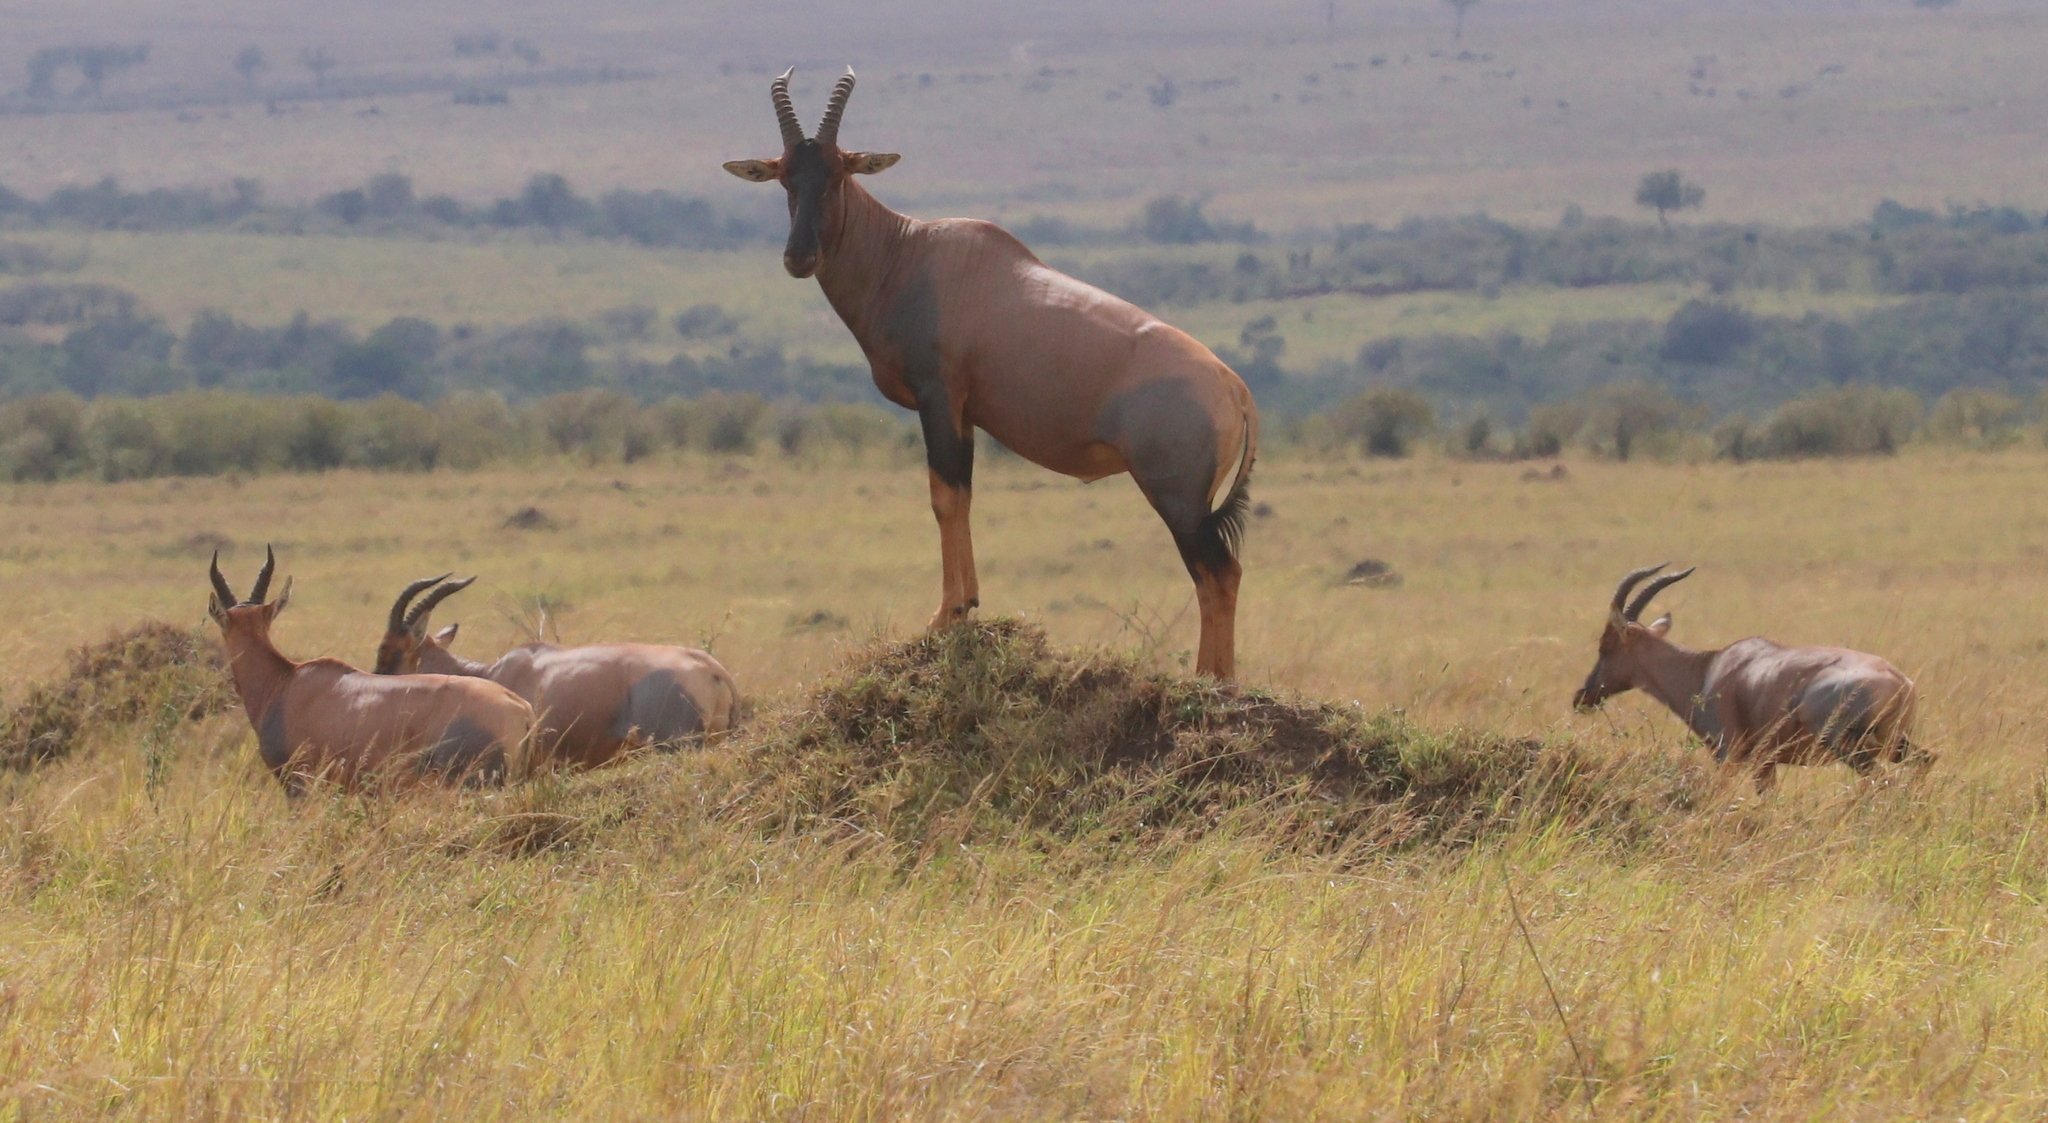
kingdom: Animalia
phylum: Chordata
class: Mammalia
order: Artiodactyla
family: Bovidae
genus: Damaliscus
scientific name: Damaliscus korrigum
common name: Topi
